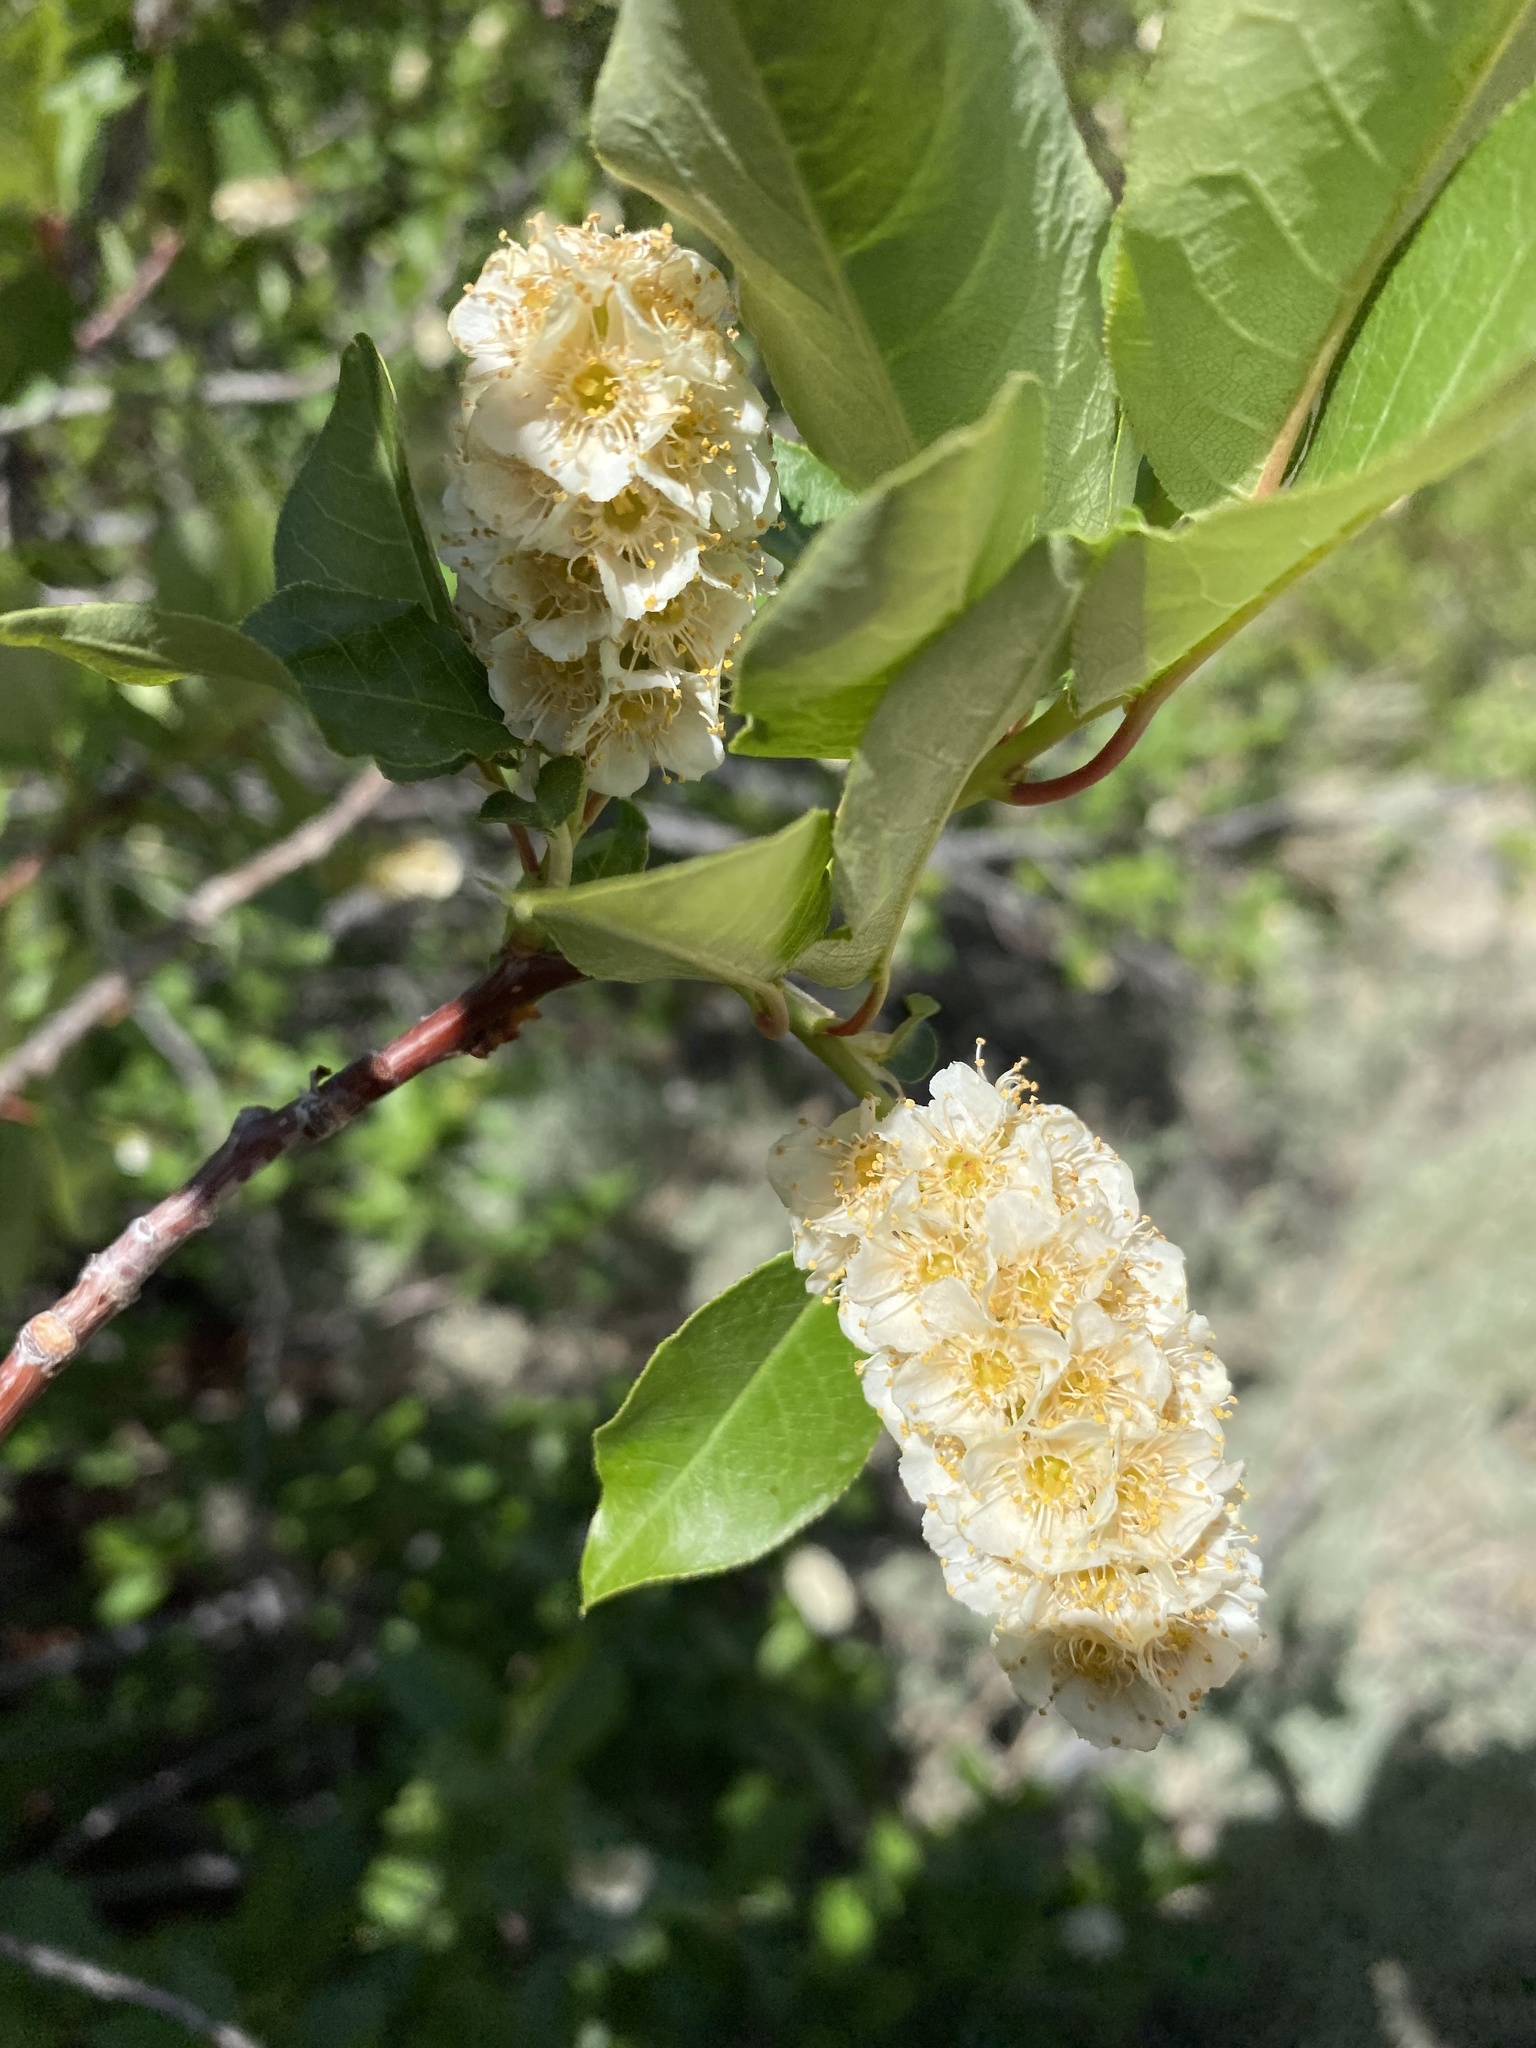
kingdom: Plantae
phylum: Tracheophyta
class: Magnoliopsida
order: Rosales
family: Rosaceae
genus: Prunus
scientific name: Prunus virginiana
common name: Chokecherry
